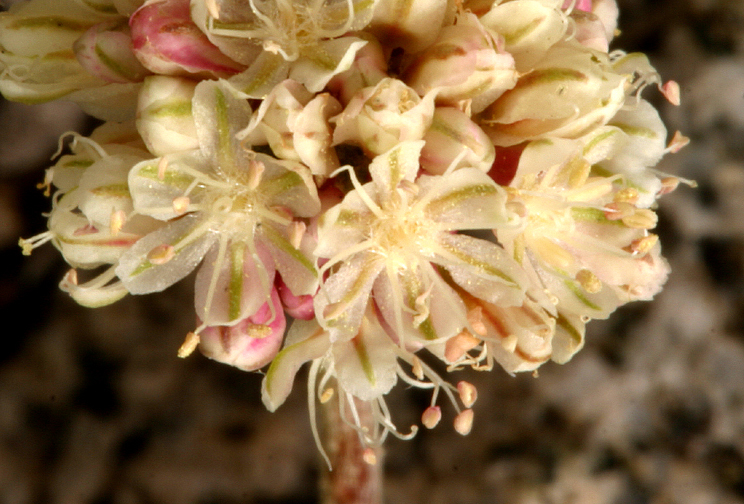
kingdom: Plantae
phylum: Tracheophyta
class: Magnoliopsida
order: Caryophyllales
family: Polygonaceae
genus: Eriogonum
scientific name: Eriogonum ovalifolium
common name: Cushion buckwheat
